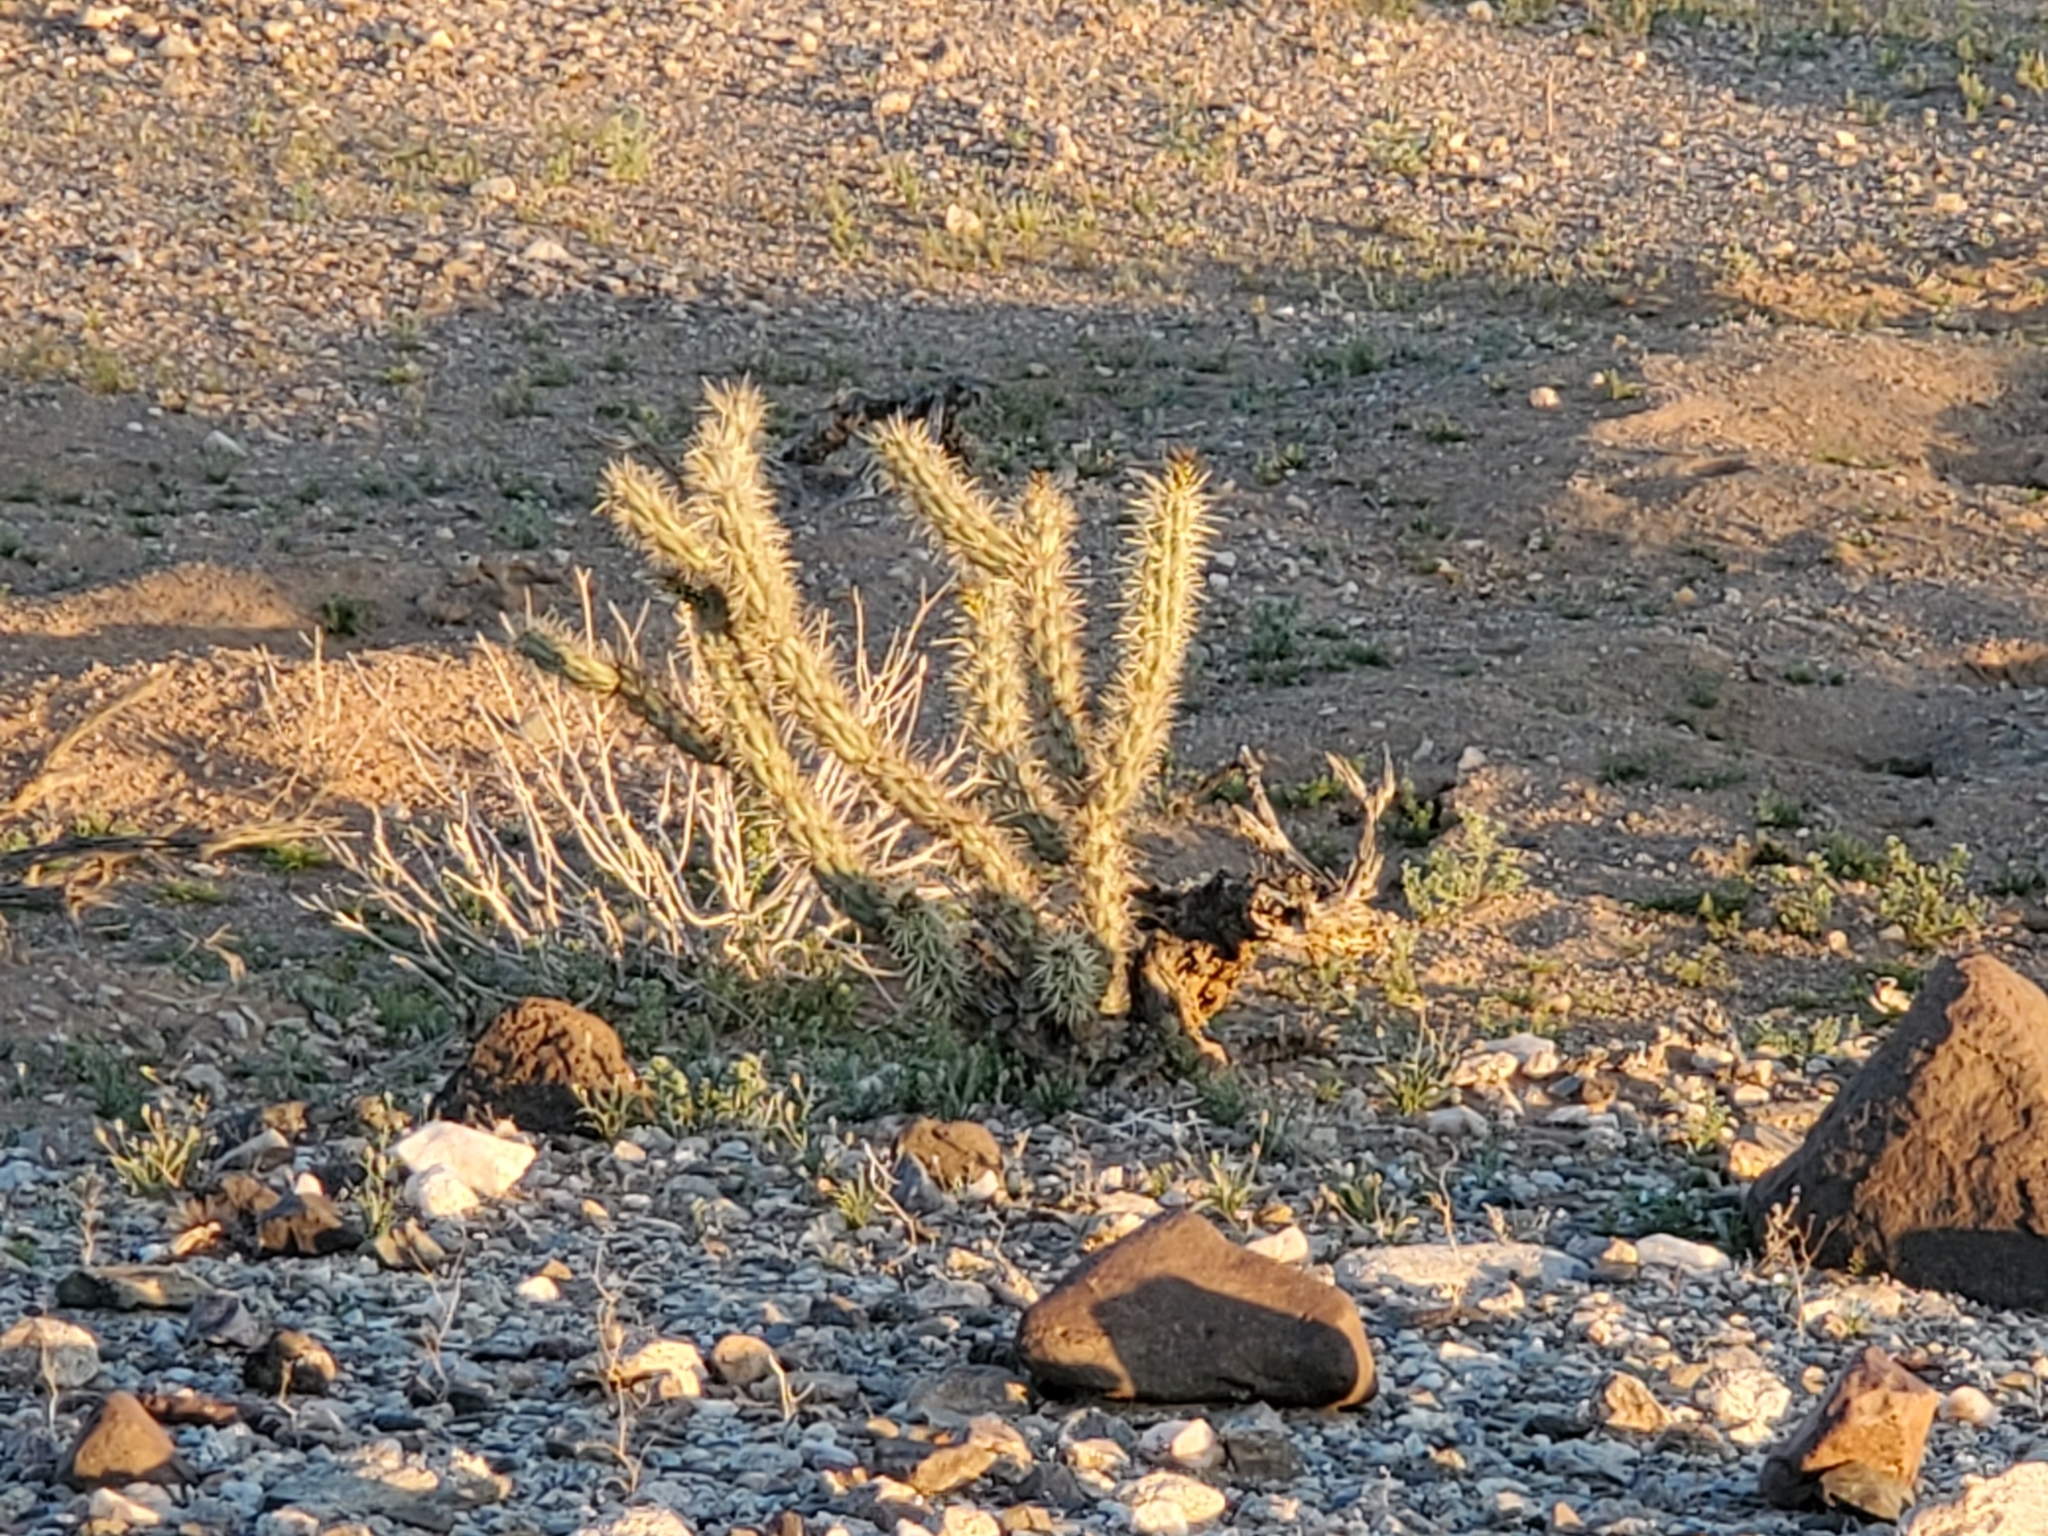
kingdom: Plantae
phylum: Tracheophyta
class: Magnoliopsida
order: Caryophyllales
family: Cactaceae
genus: Cylindropuntia
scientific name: Cylindropuntia acanthocarpa
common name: Buckhorn cholla
